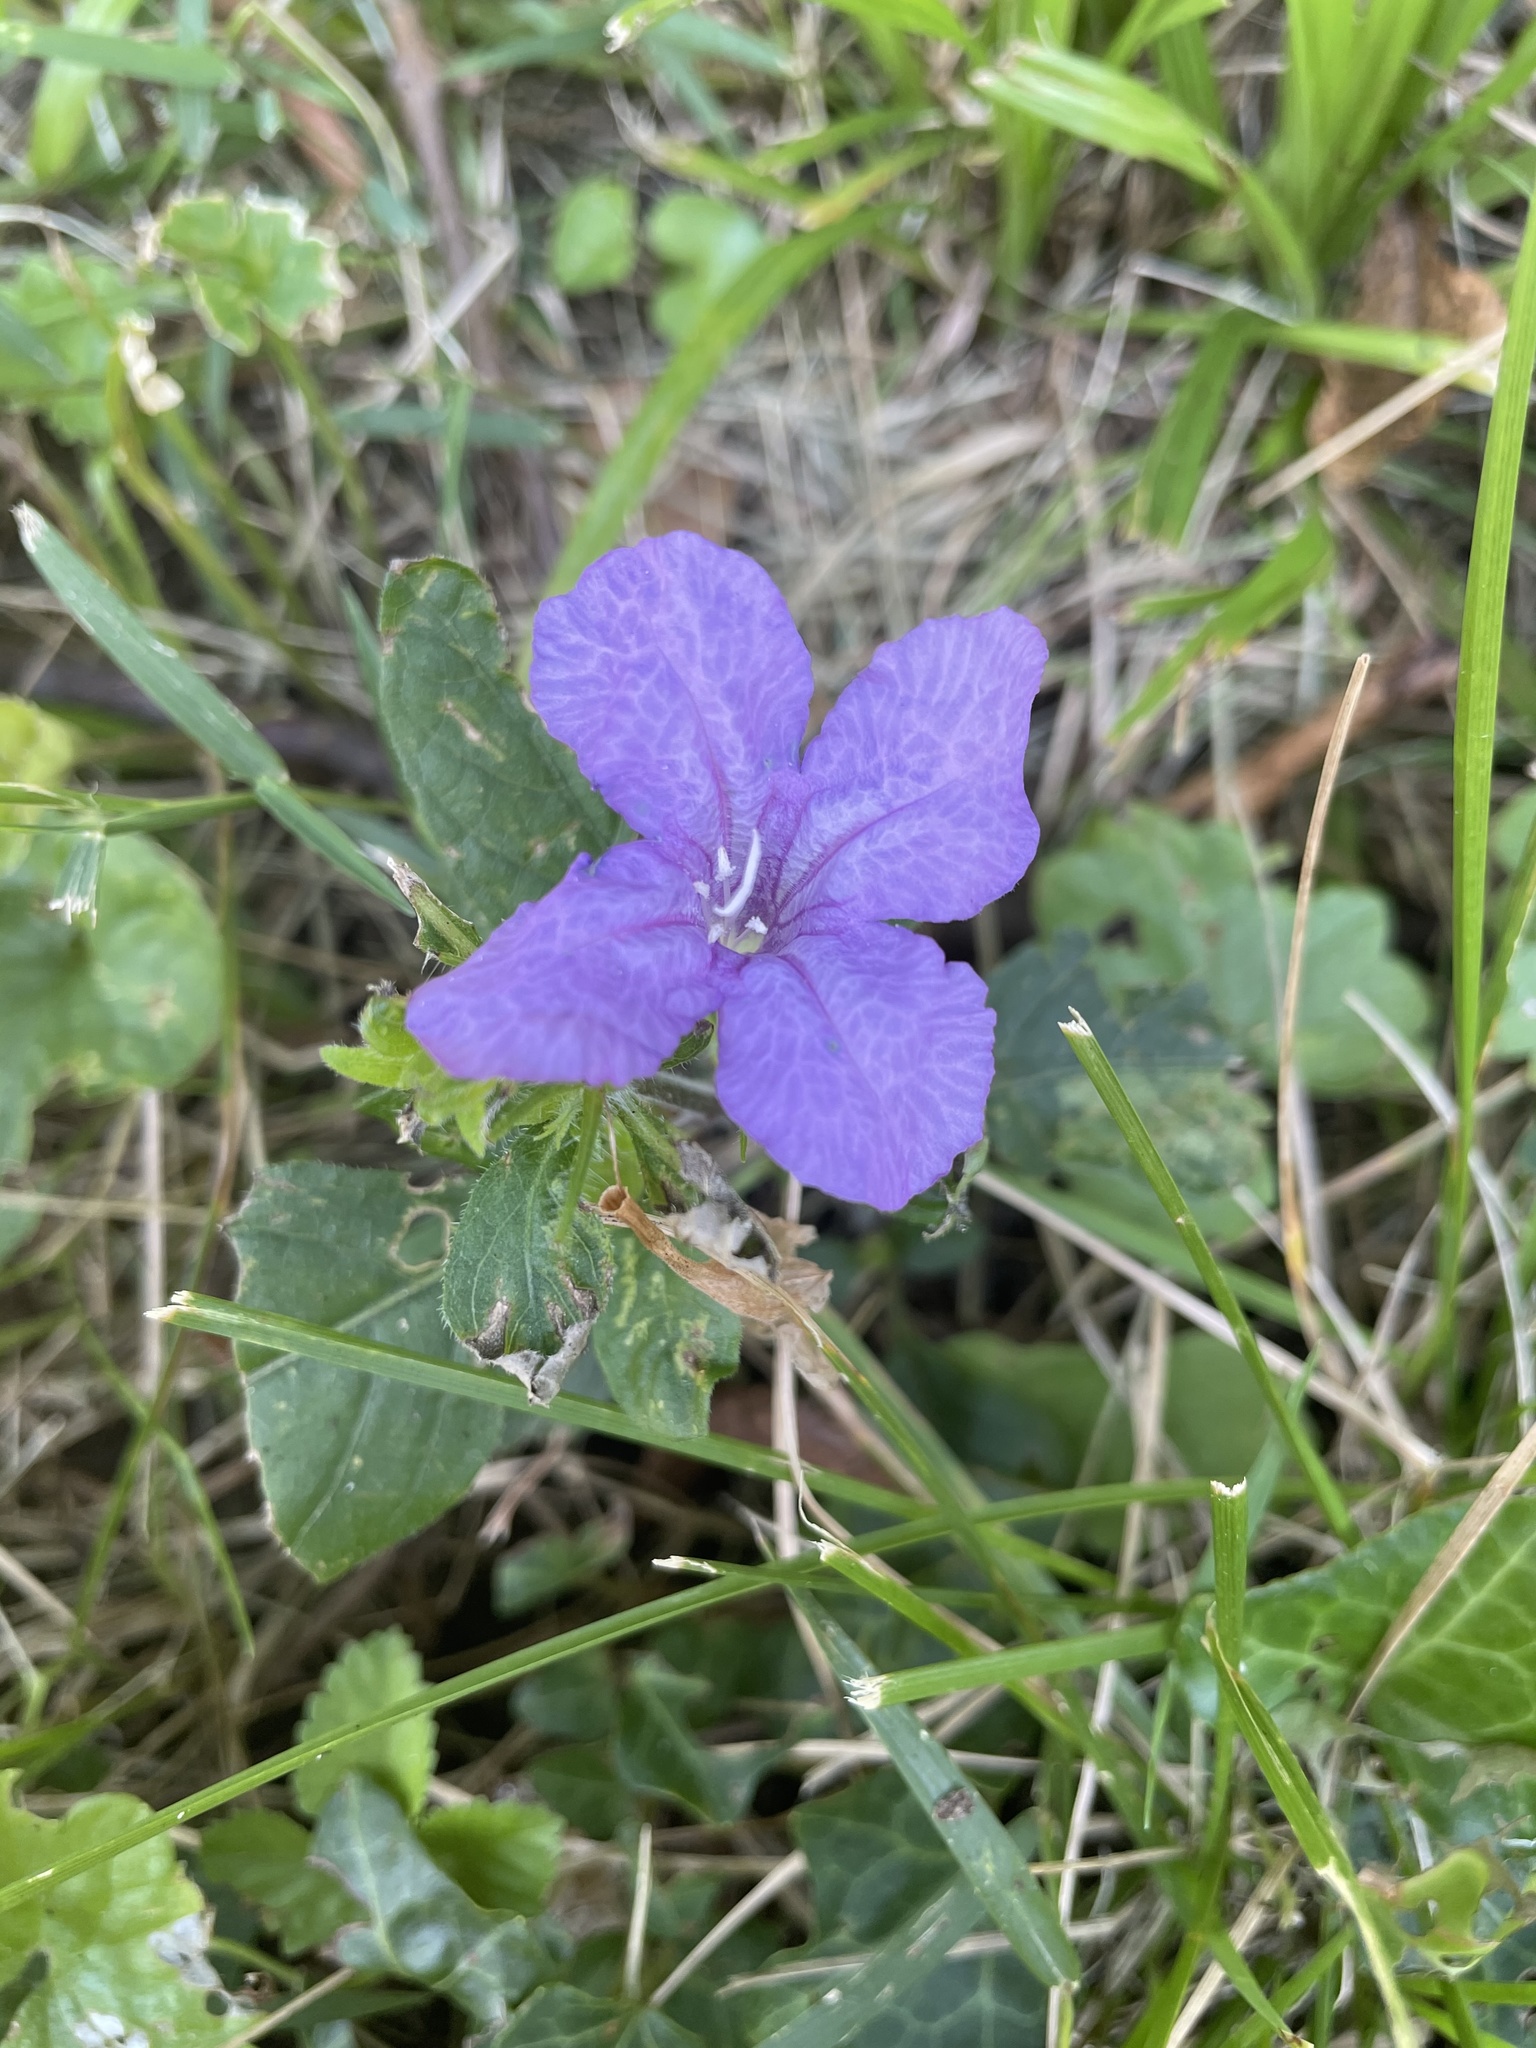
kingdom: Plantae
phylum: Tracheophyta
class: Magnoliopsida
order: Lamiales
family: Acanthaceae
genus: Ruellia
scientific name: Ruellia caroliniensis
